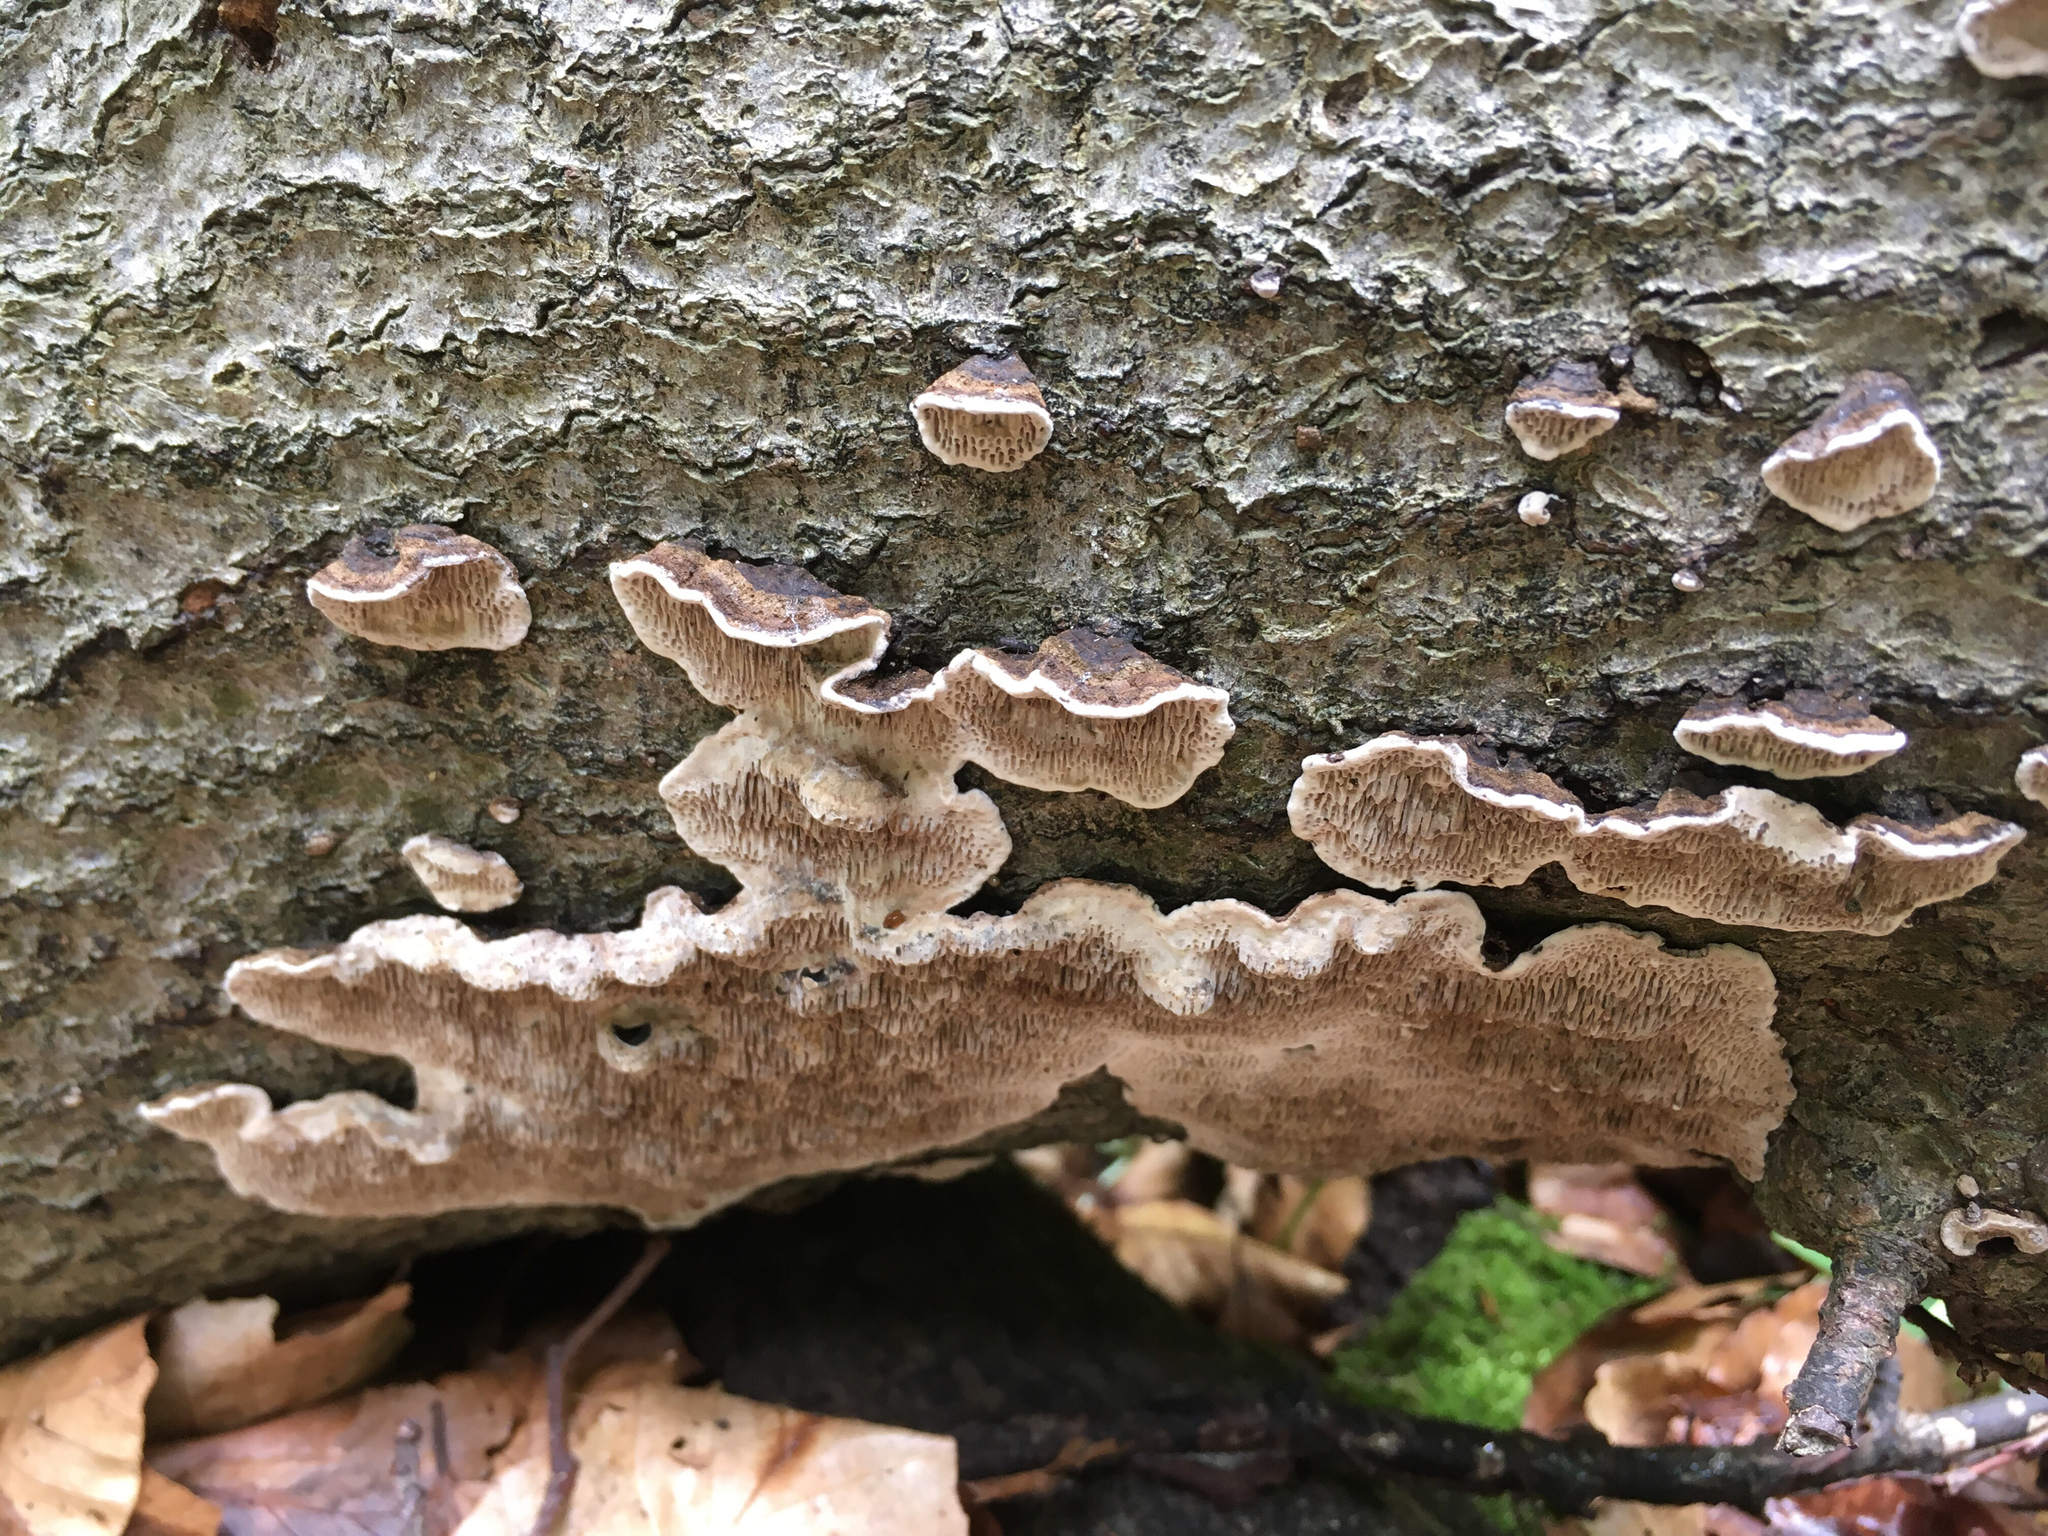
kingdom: Fungi
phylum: Basidiomycota
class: Agaricomycetes
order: Polyporales
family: Polyporaceae
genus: Podofomes
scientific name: Podofomes mollis
